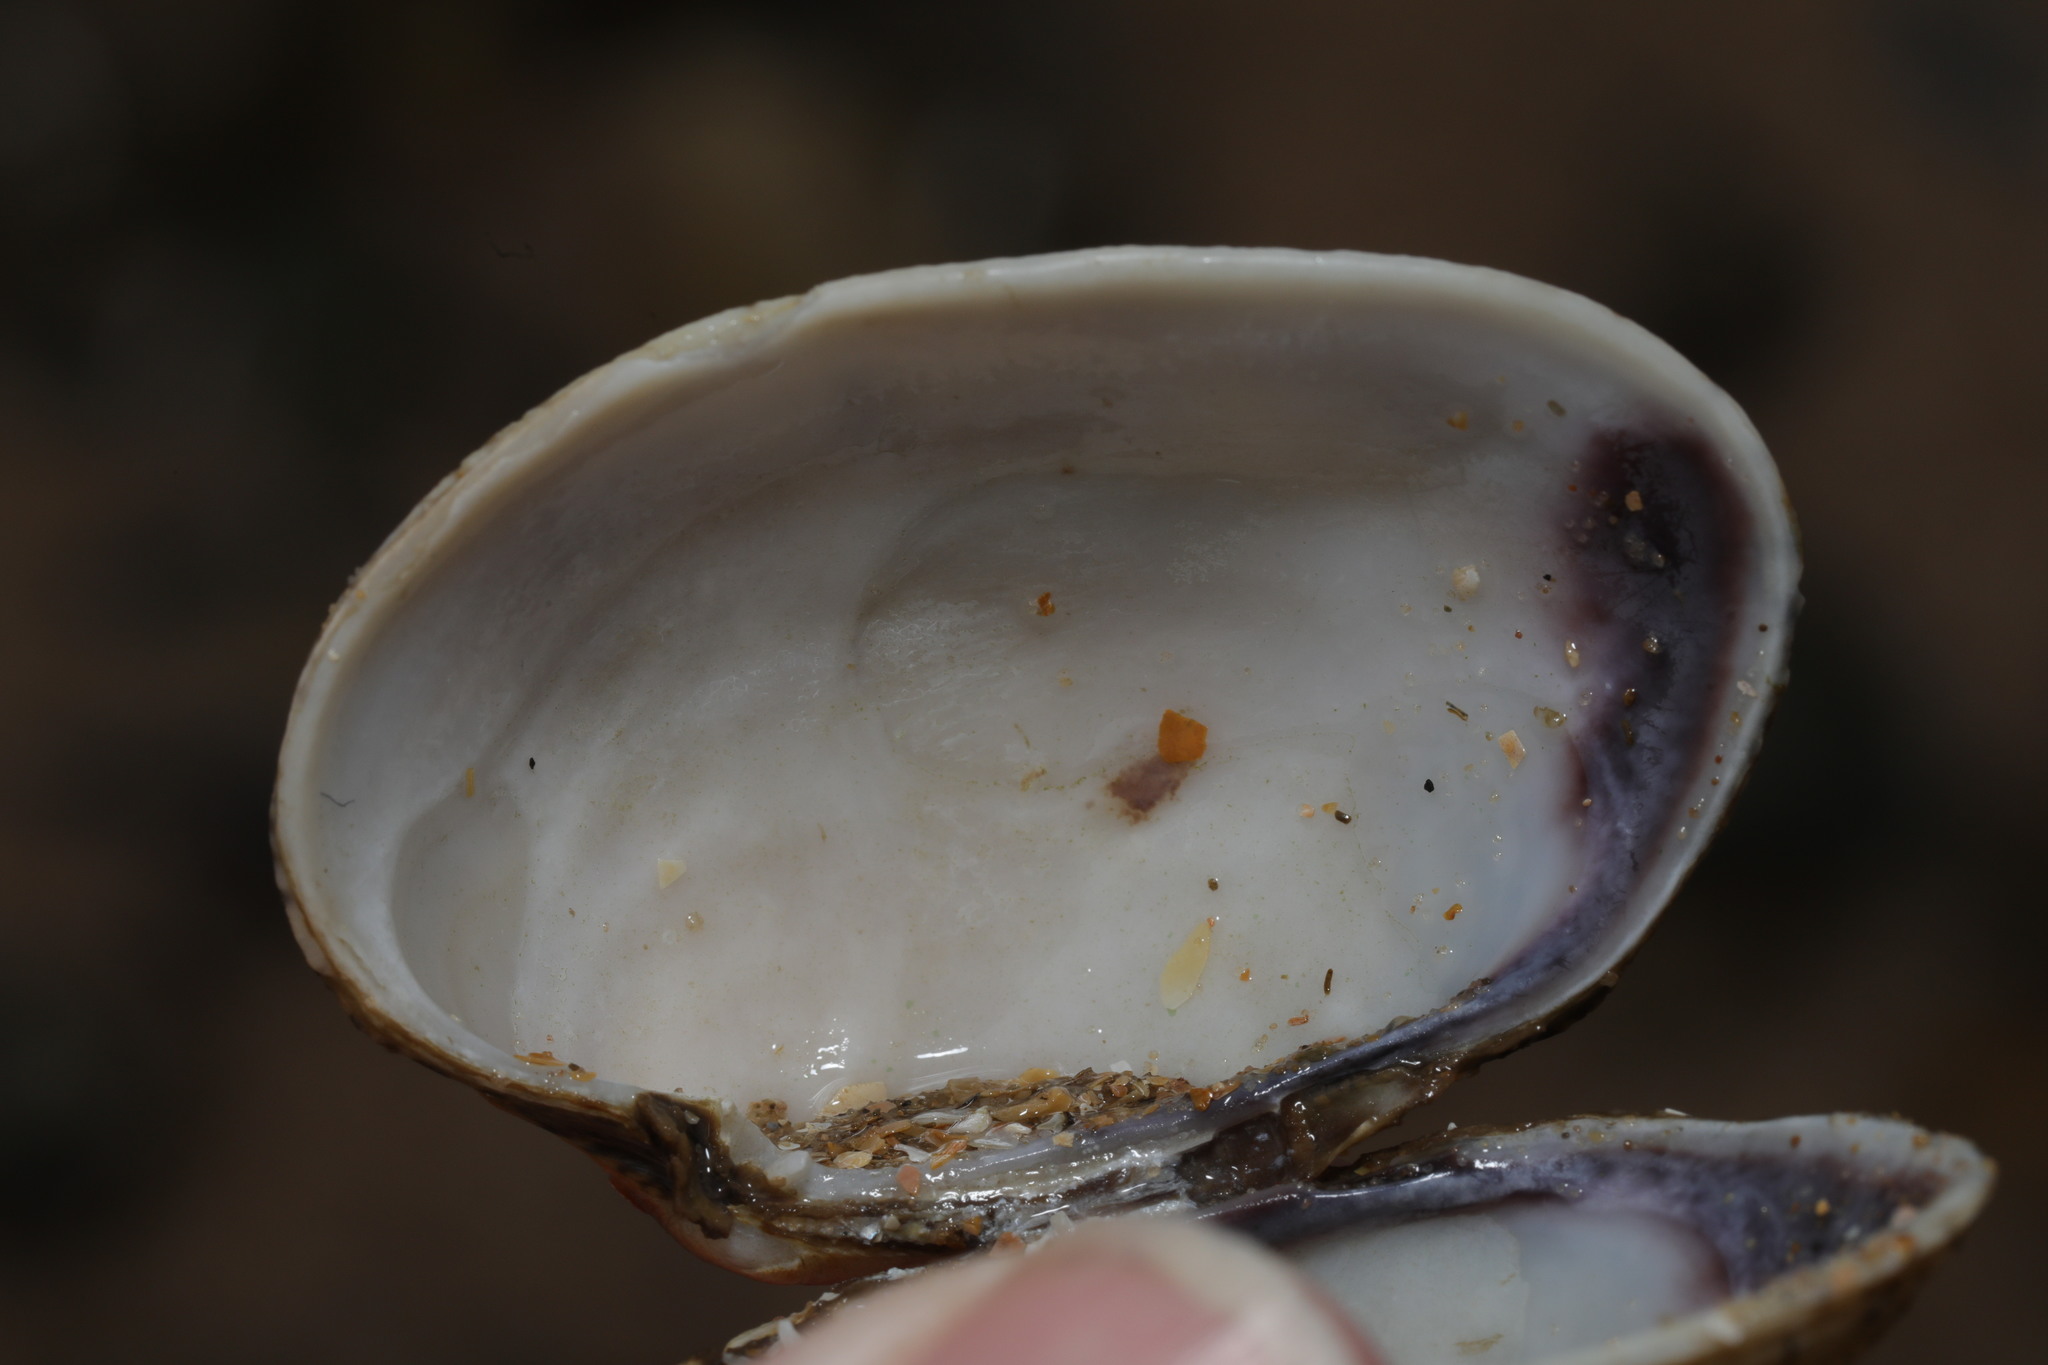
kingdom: Animalia
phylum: Mollusca
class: Bivalvia
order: Venerida
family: Veneridae
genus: Venerupis
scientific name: Venerupis corrugata
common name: Pullet carpet shell
